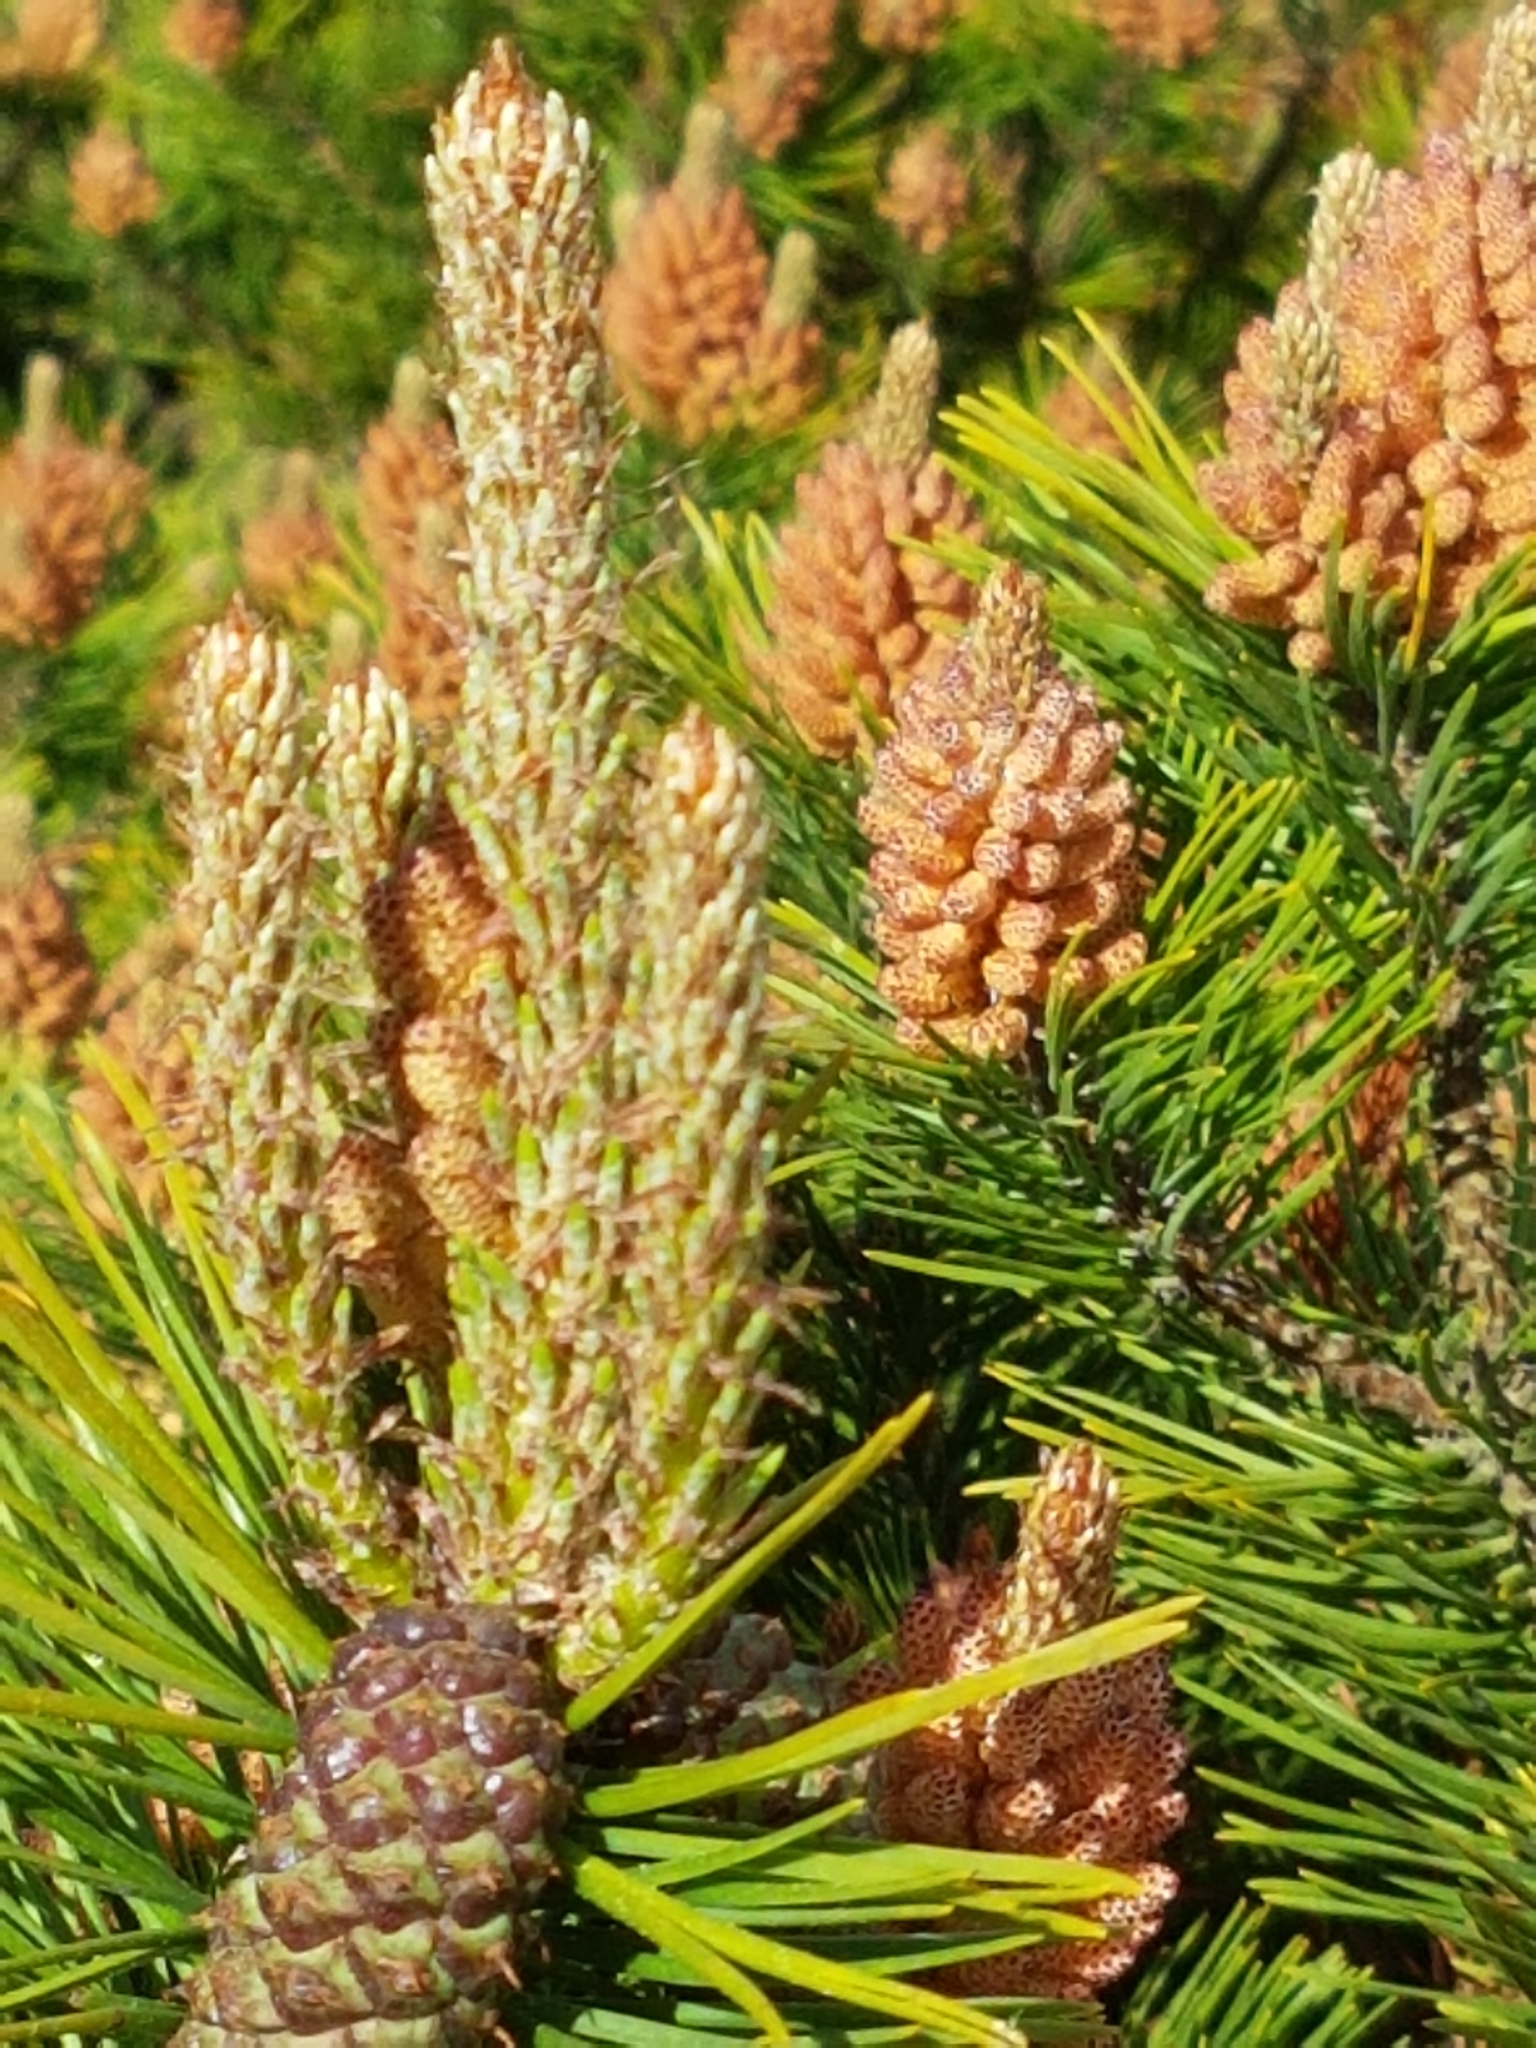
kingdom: Plantae
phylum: Tracheophyta
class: Pinopsida
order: Pinales
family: Pinaceae
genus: Pinus
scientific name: Pinus sylvestris
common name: Scots pine
